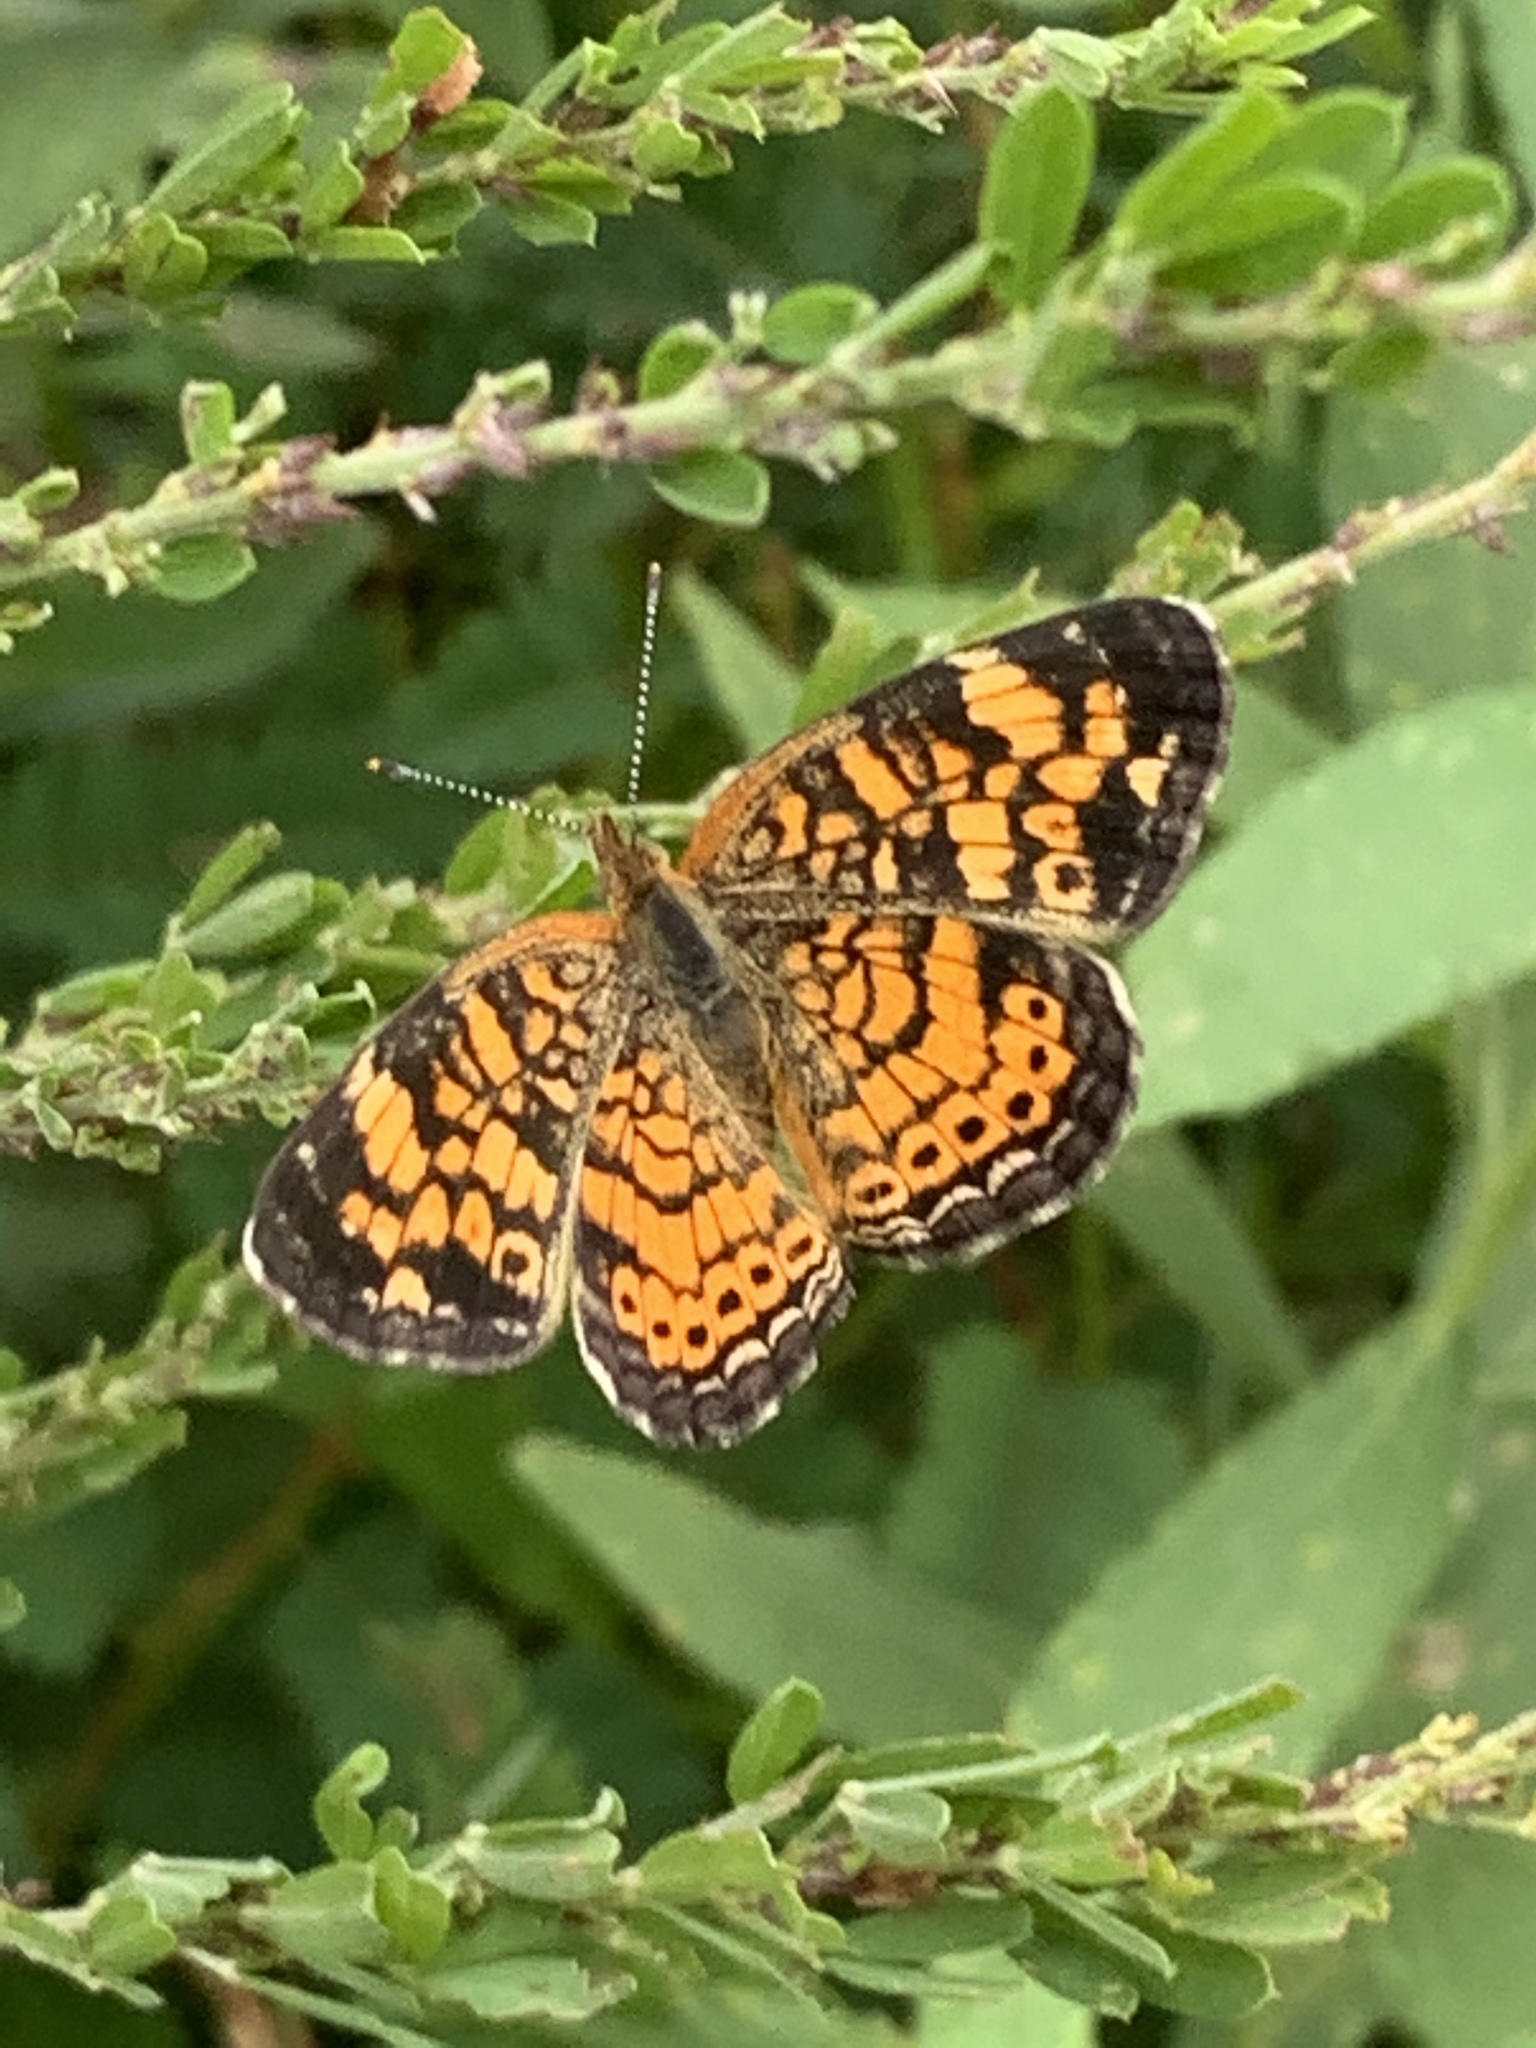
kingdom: Animalia
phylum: Arthropoda
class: Insecta
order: Lepidoptera
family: Nymphalidae
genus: Phyciodes
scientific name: Phyciodes tharos
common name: Pearl crescent
